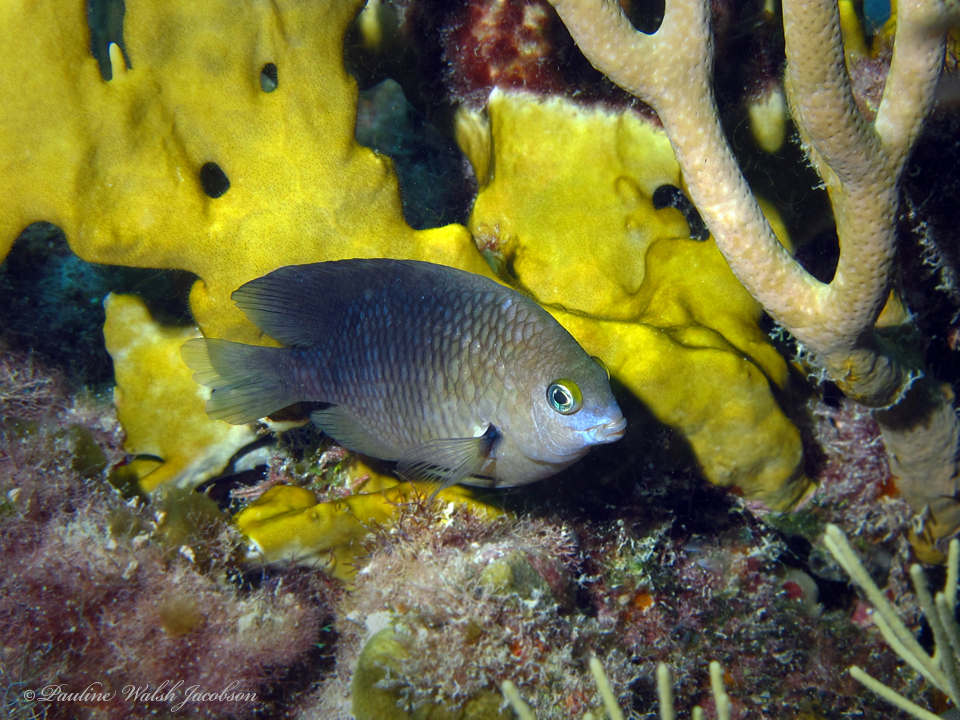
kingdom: Animalia
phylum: Chordata
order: Perciformes
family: Pomacentridae
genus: Stegastes
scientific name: Stegastes planifrons
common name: Threespot damselfish
